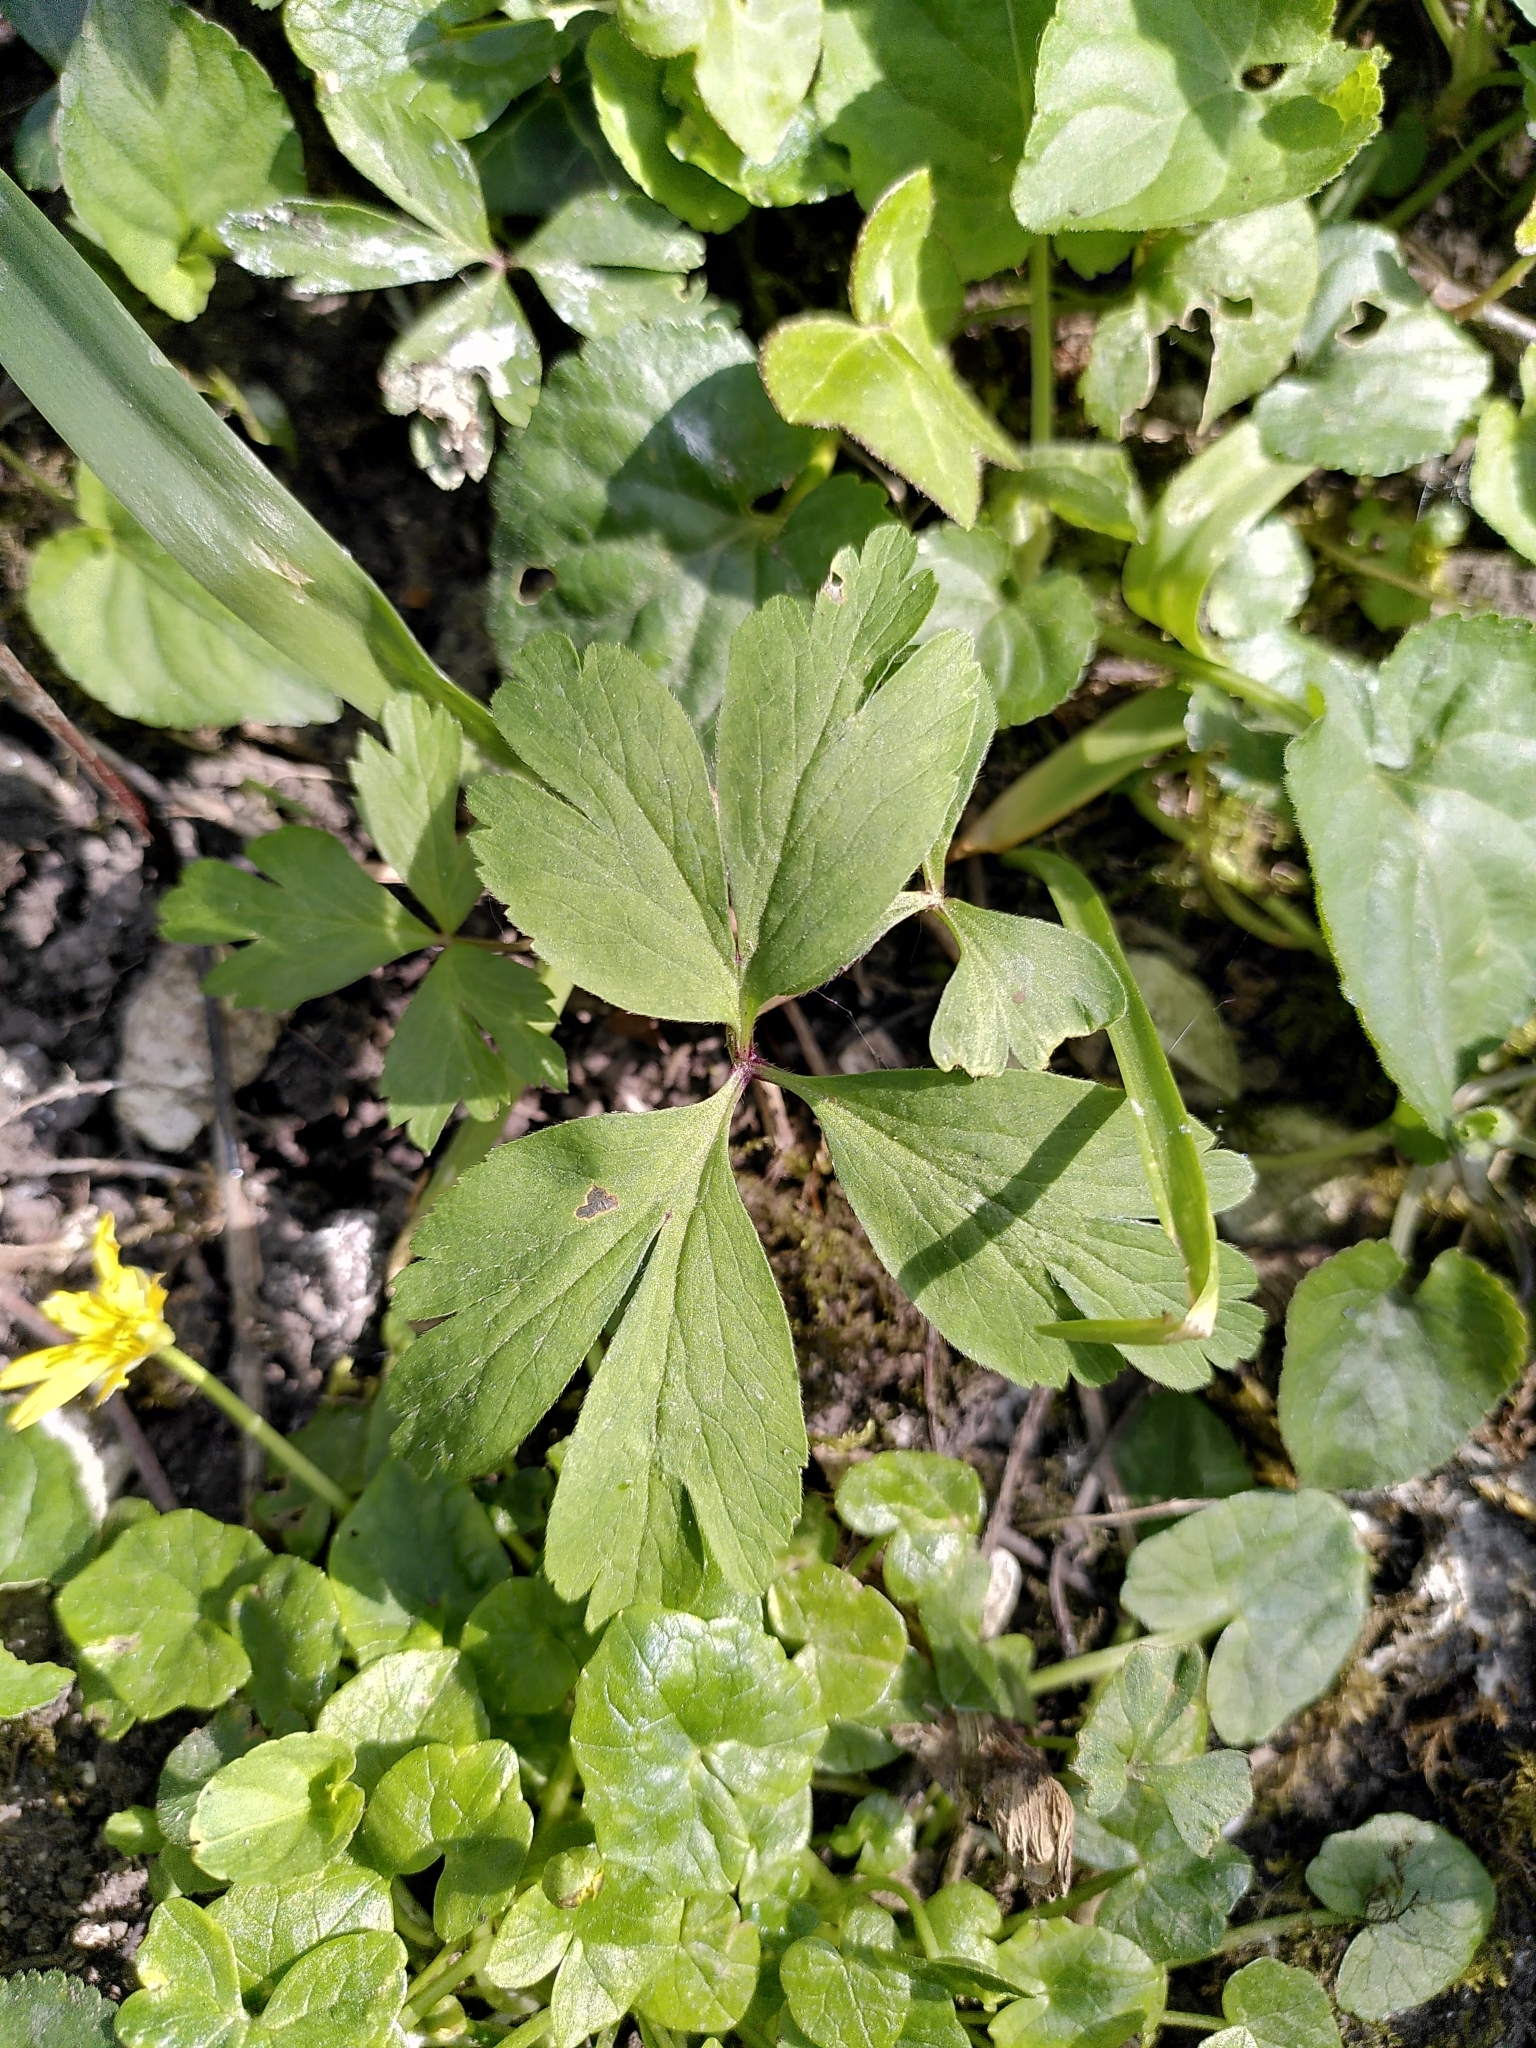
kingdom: Plantae
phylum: Tracheophyta
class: Magnoliopsida
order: Ranunculales
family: Ranunculaceae
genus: Anemone
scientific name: Anemone nemorosa
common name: Wood anemone
